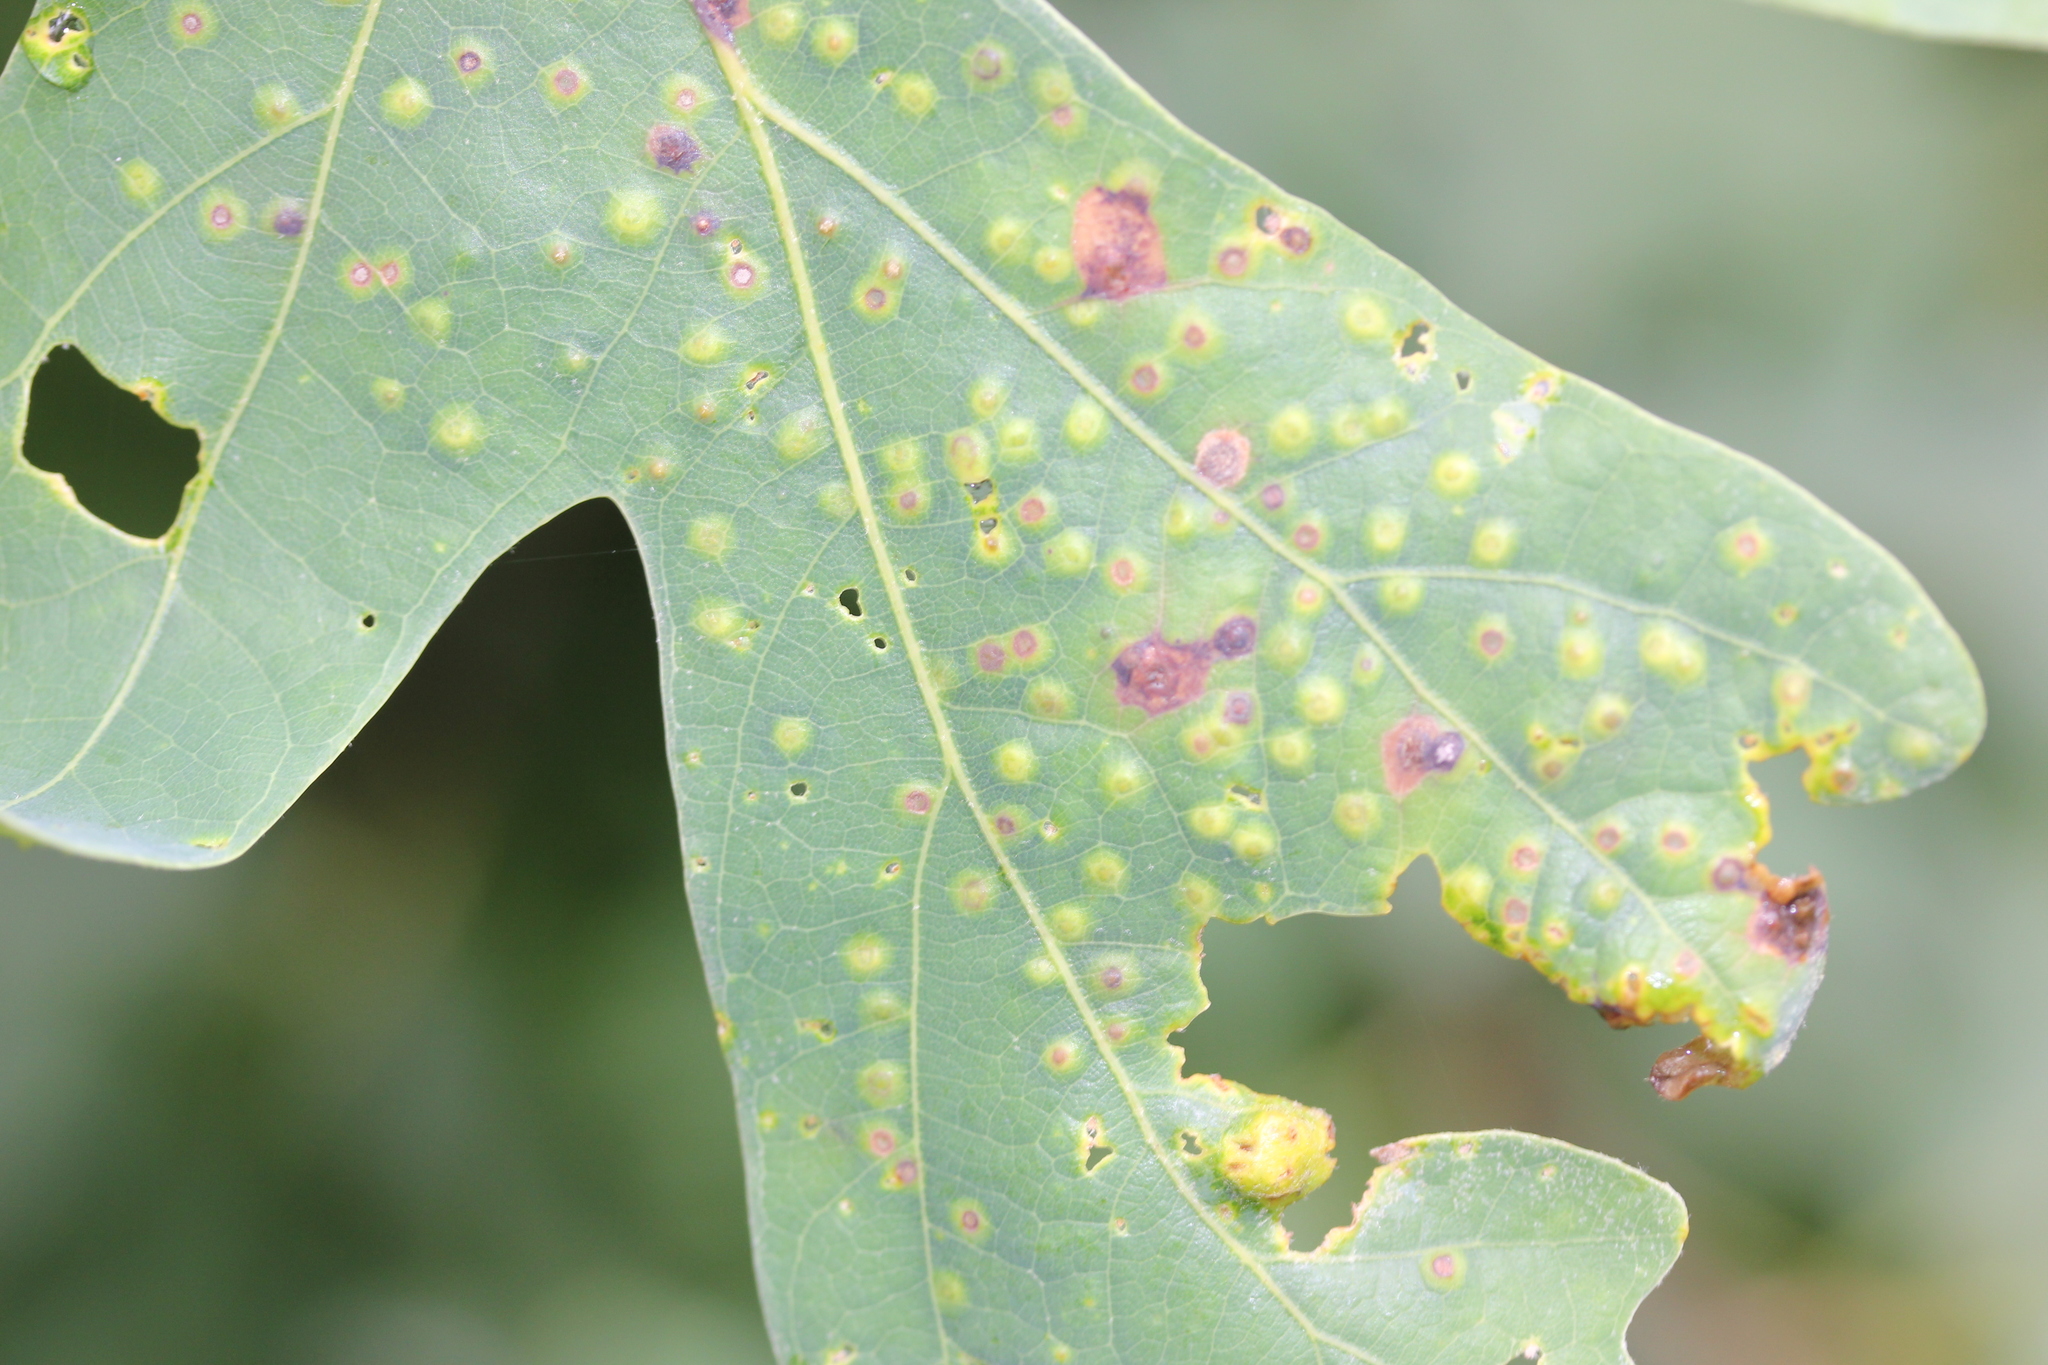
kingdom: Animalia
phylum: Arthropoda
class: Insecta
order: Hymenoptera
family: Cynipidae
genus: Neuroterus
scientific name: Neuroterus
